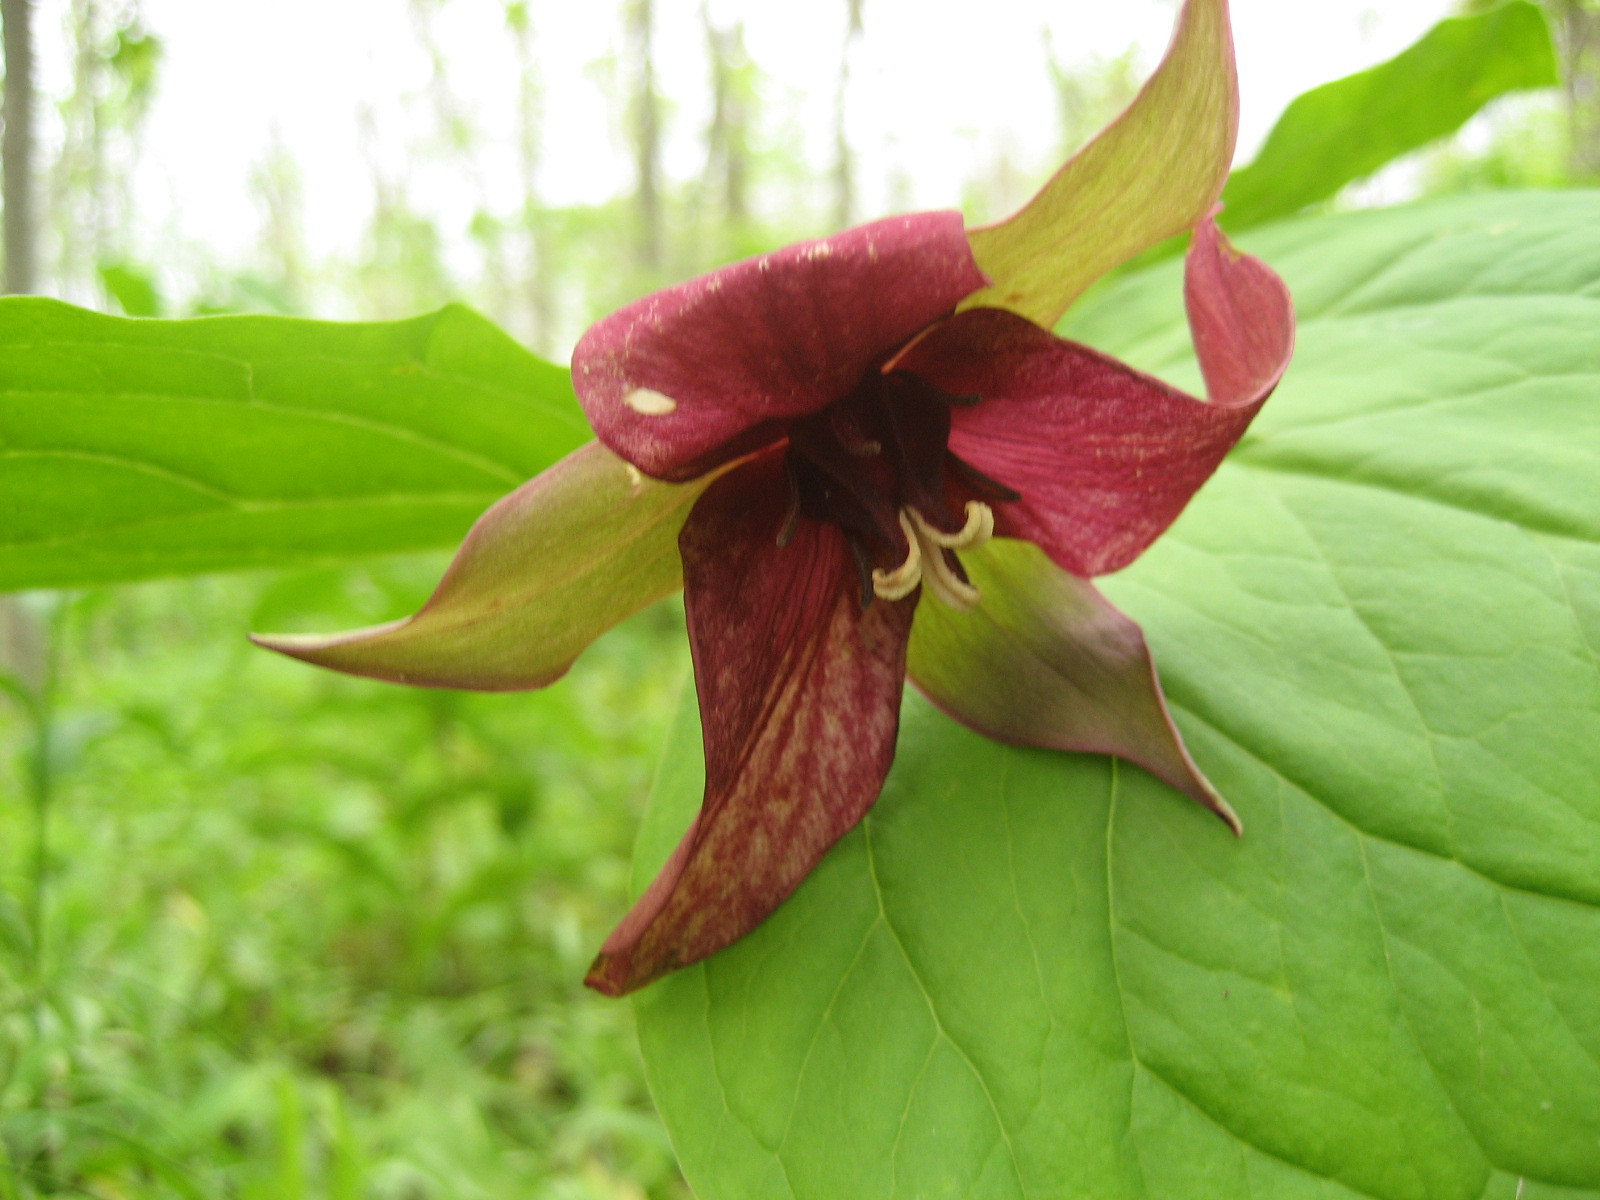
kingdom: Plantae
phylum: Tracheophyta
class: Liliopsida
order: Liliales
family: Melanthiaceae
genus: Trillium
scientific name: Trillium erectum
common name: Purple trillium
